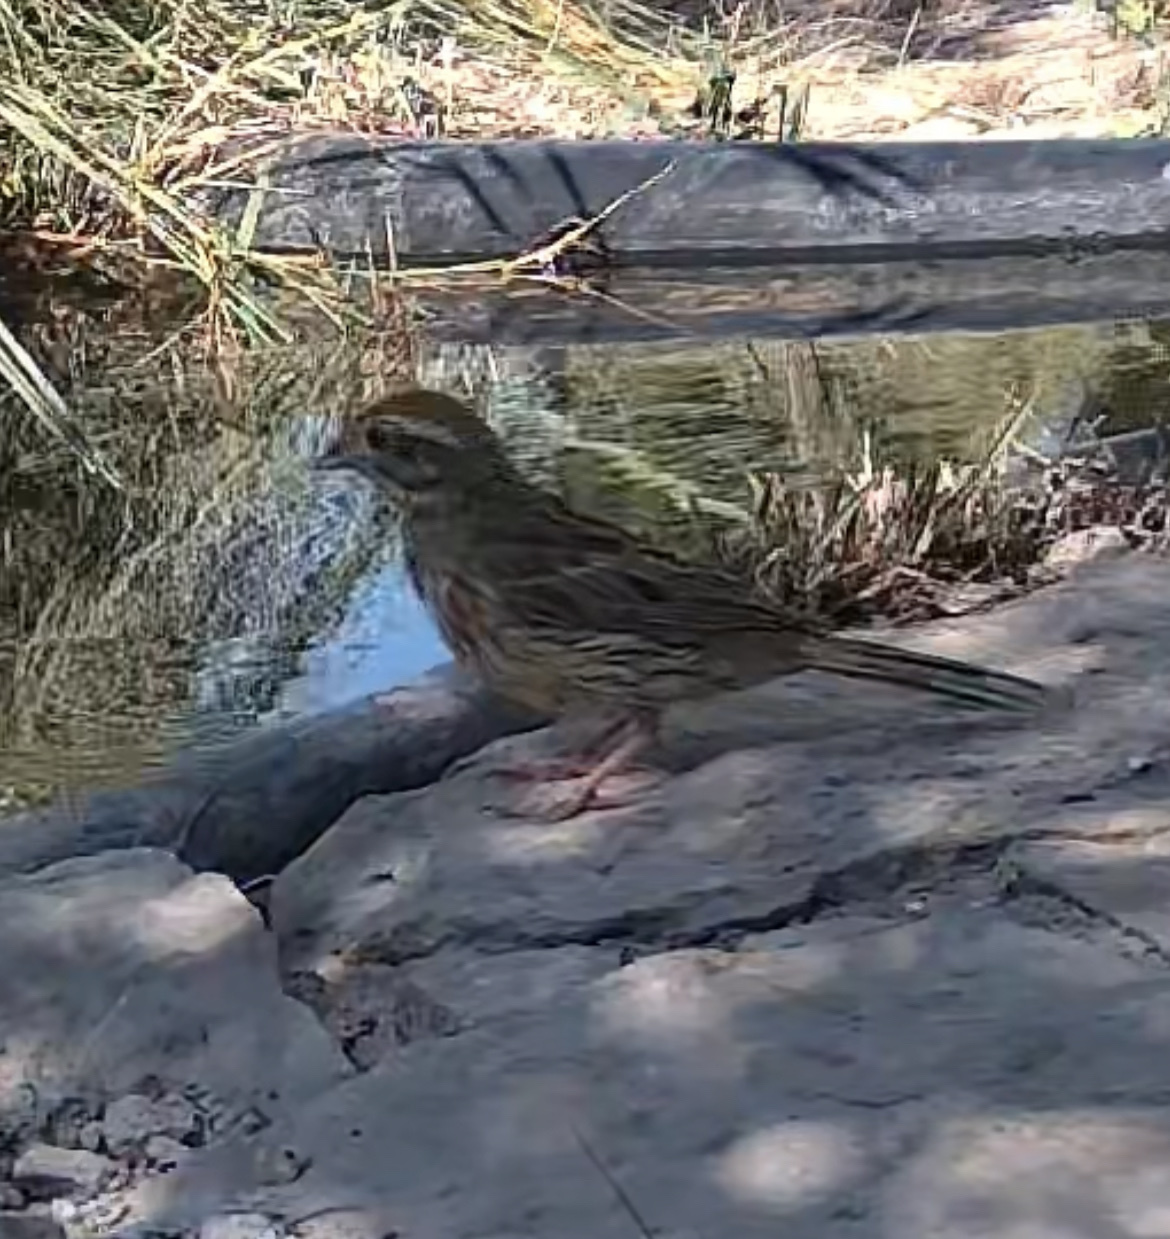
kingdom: Animalia
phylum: Chordata
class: Aves
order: Passeriformes
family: Emberizidae
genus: Emberiza
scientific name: Emberiza cirlus
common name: Cirl bunting
